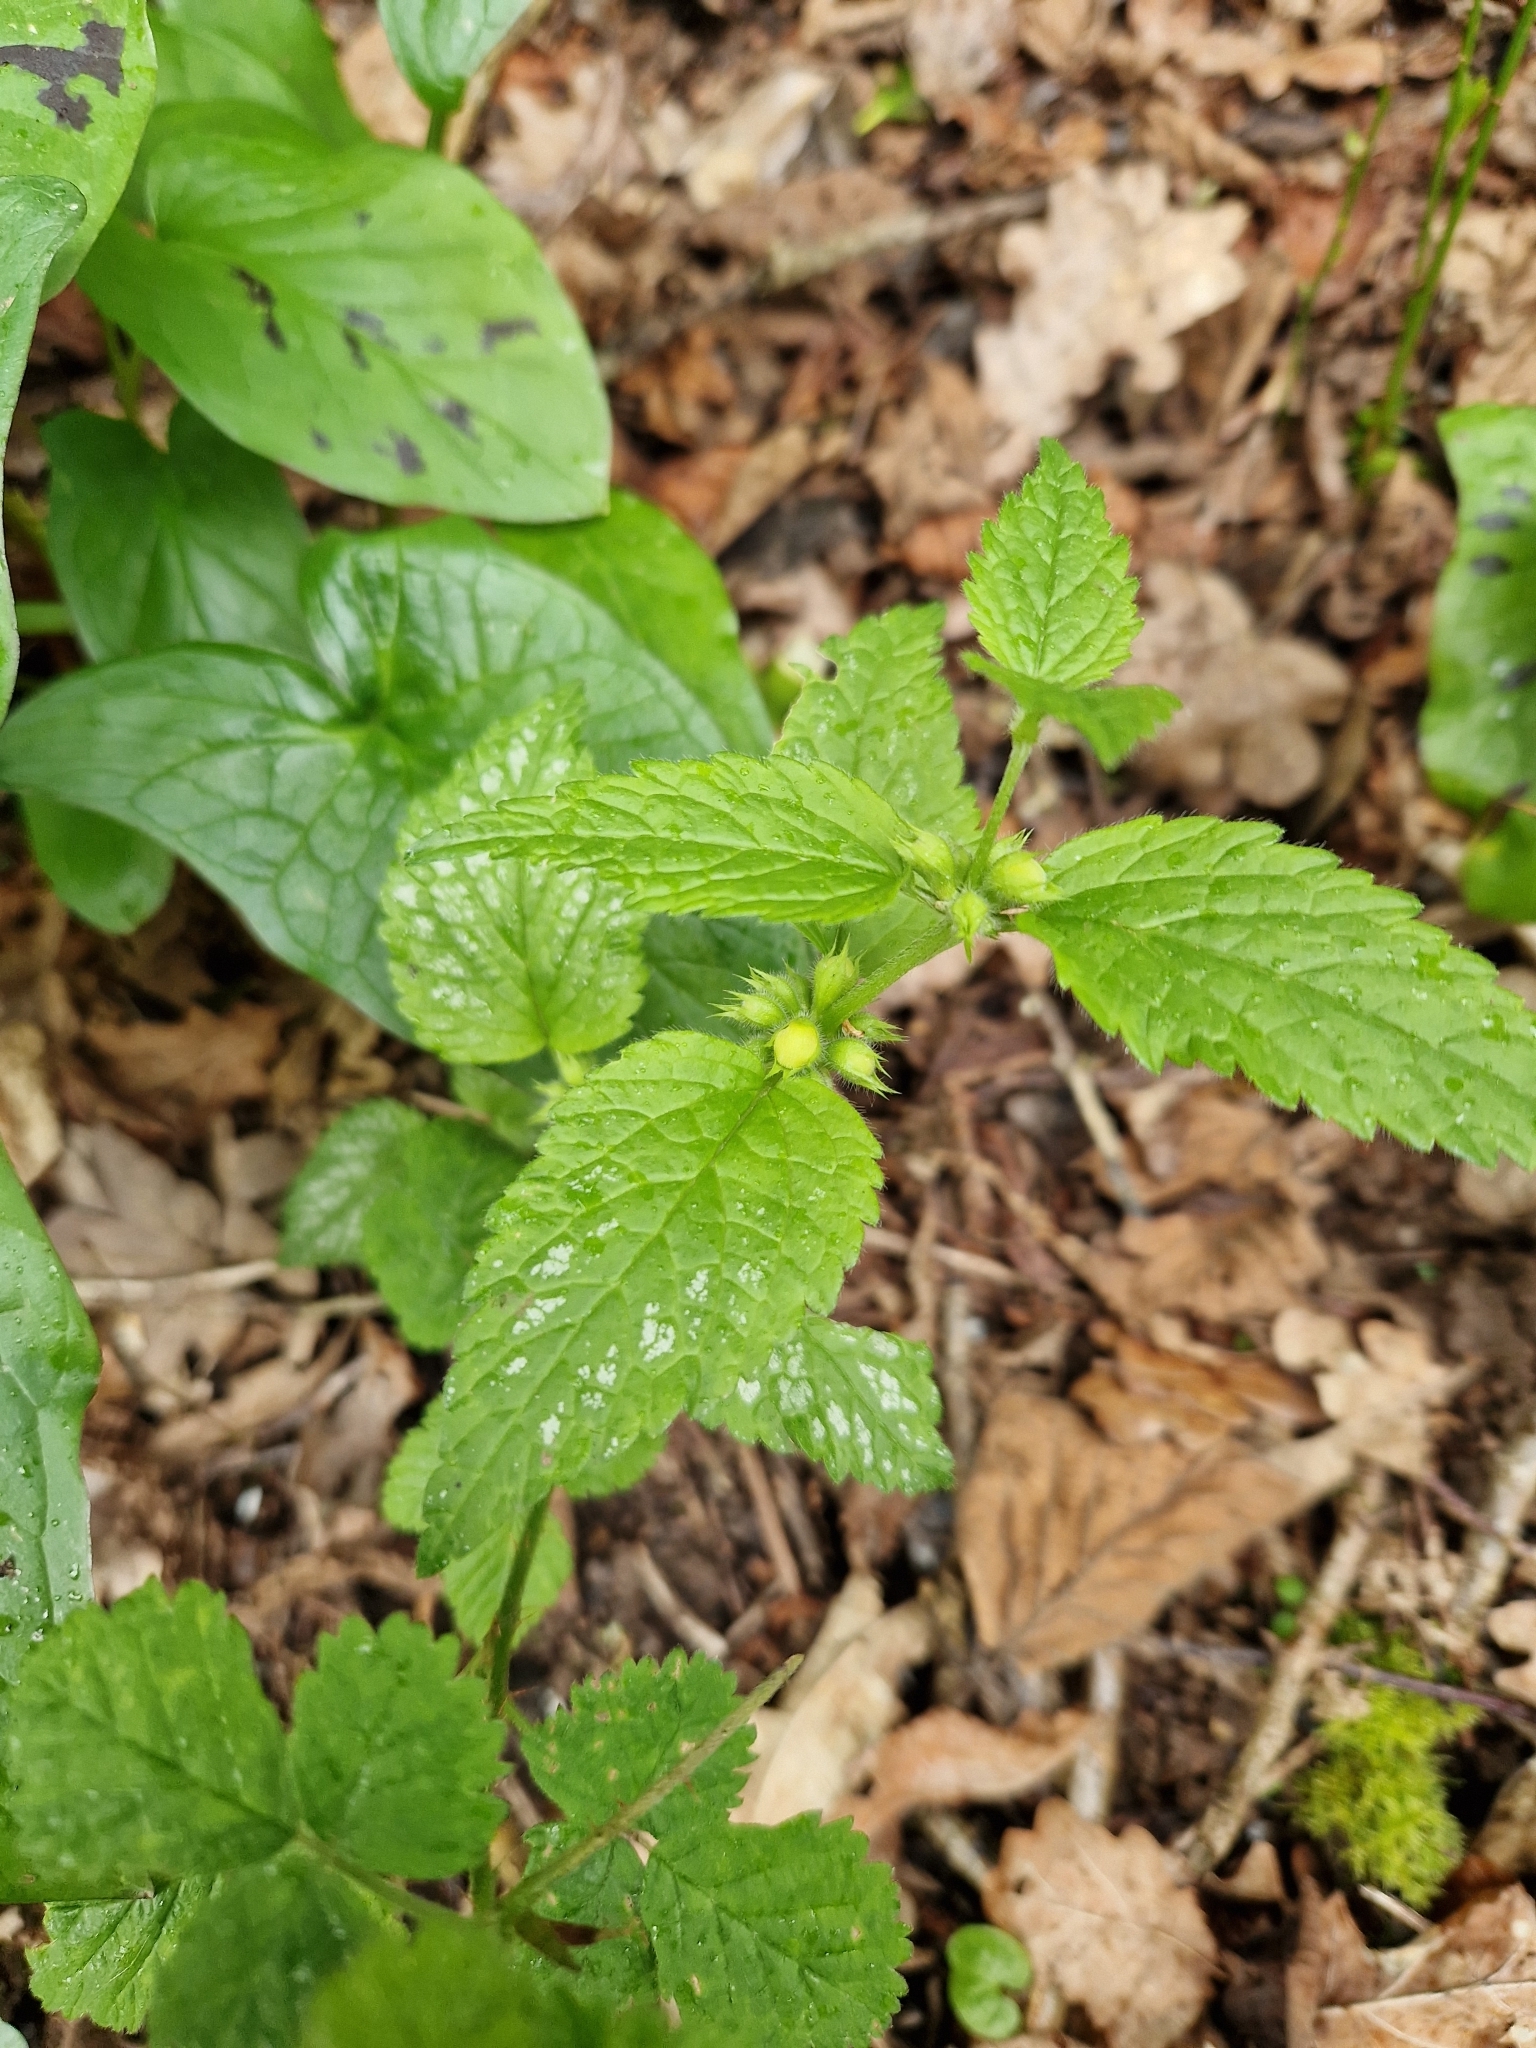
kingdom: Plantae
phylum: Tracheophyta
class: Magnoliopsida
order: Lamiales
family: Lamiaceae
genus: Lamium
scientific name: Lamium galeobdolon
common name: Yellow archangel
